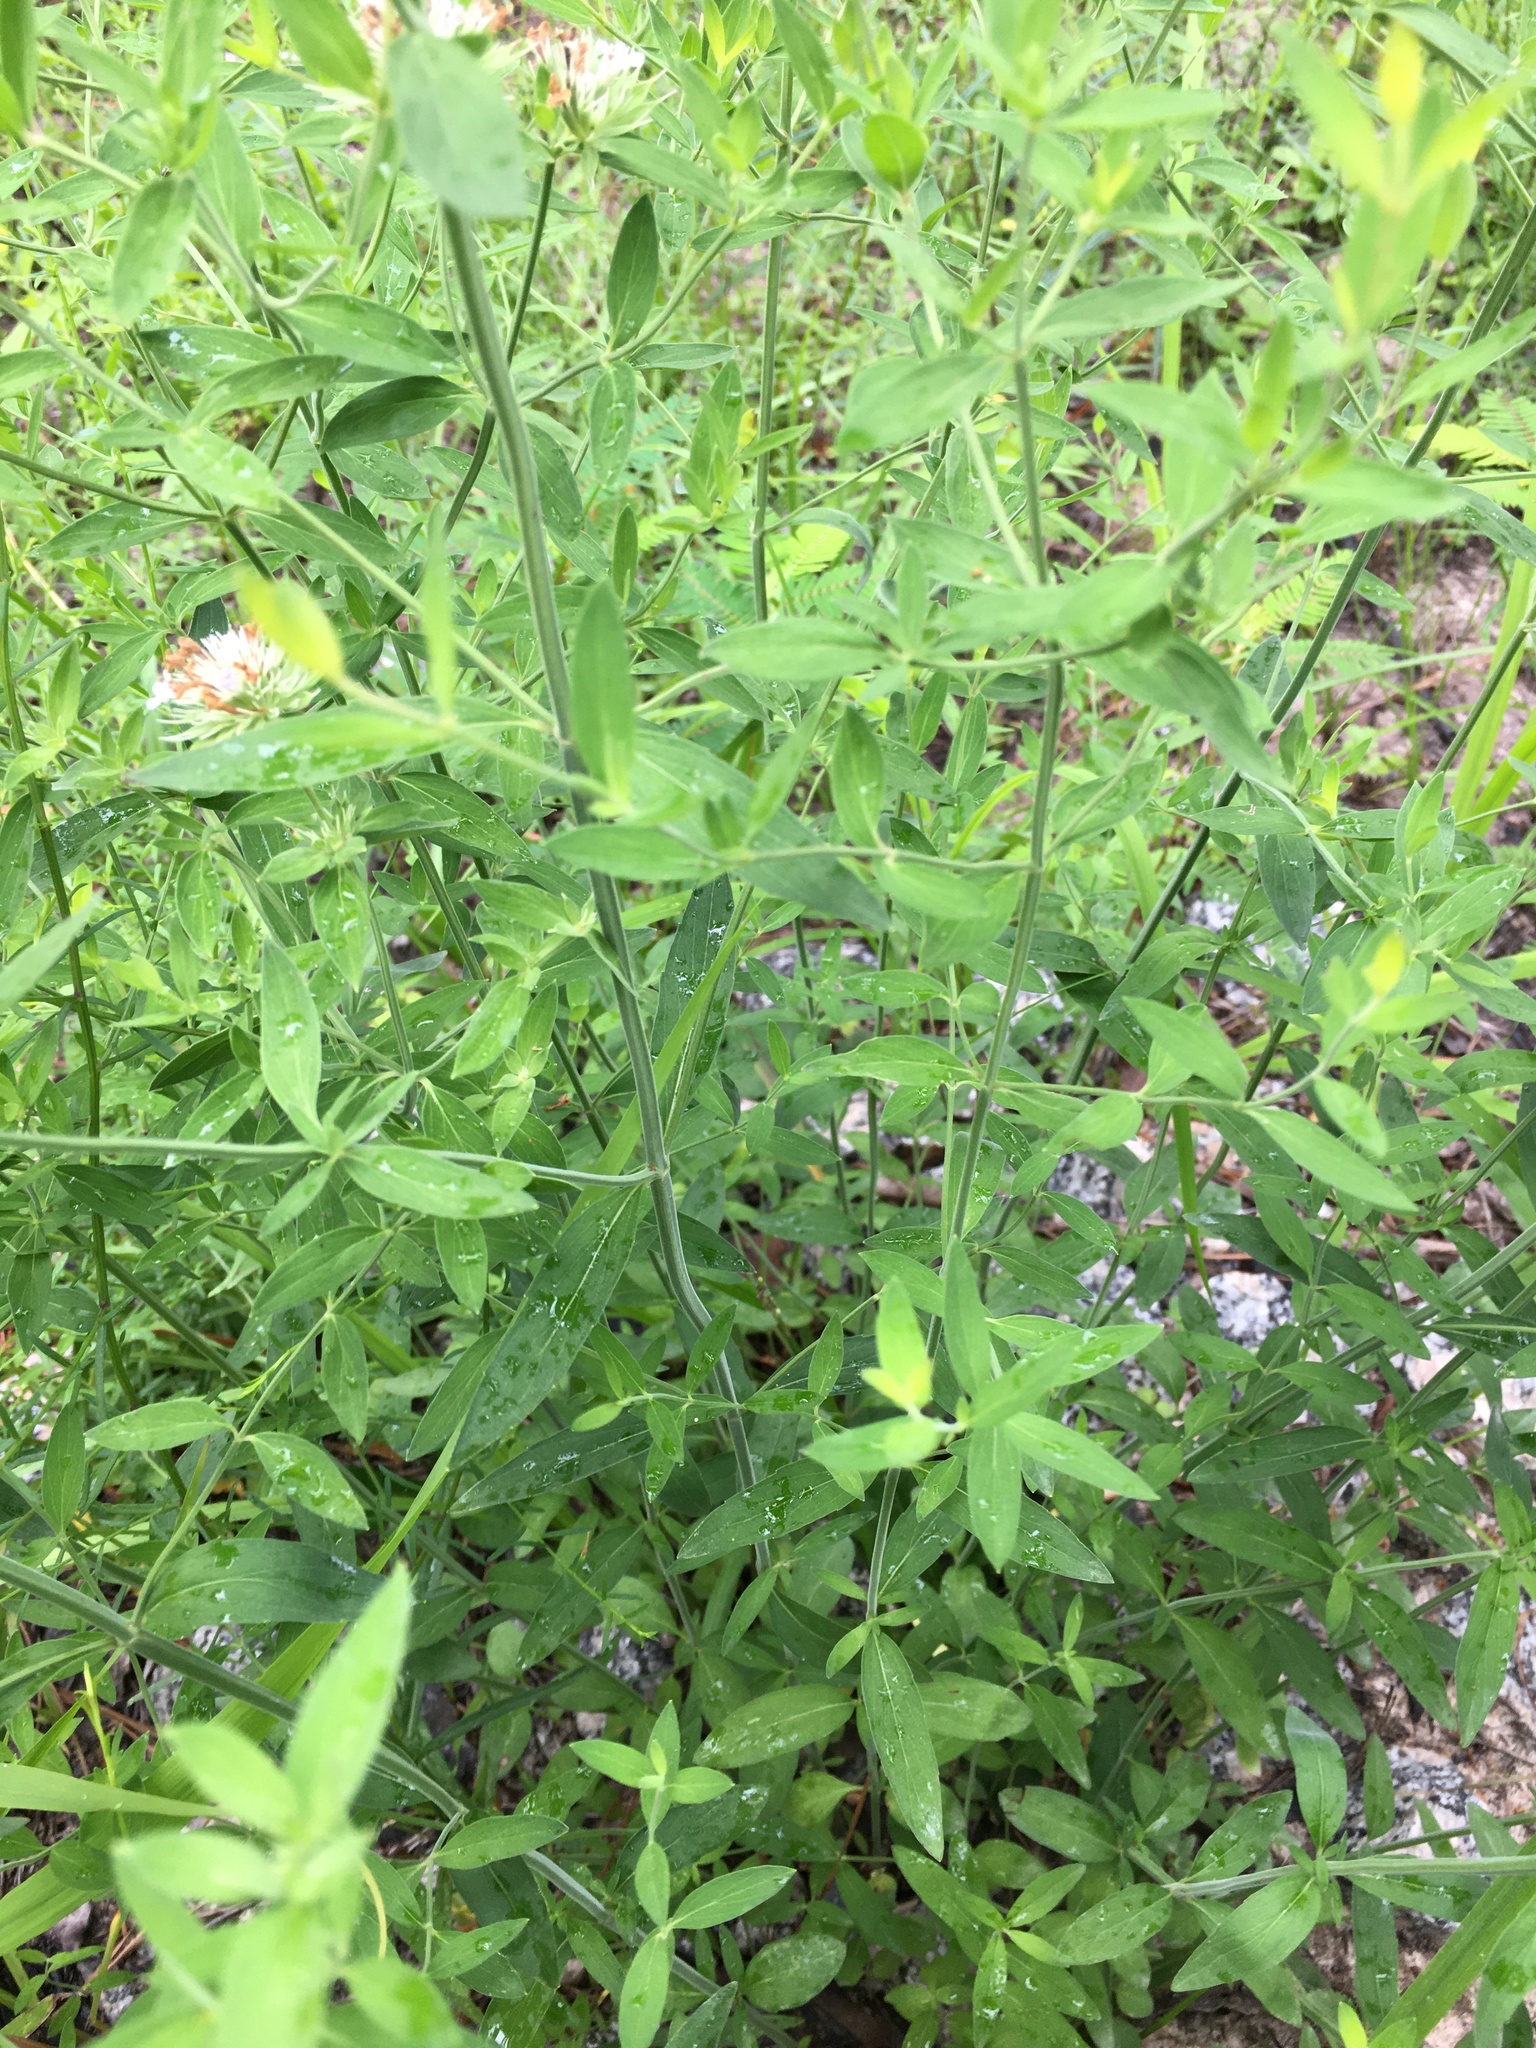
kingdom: Plantae
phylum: Tracheophyta
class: Magnoliopsida
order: Lamiales
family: Lamiaceae
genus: Pycnanthemum
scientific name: Pycnanthemum flexuosum
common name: Appalachian mountain-mint
